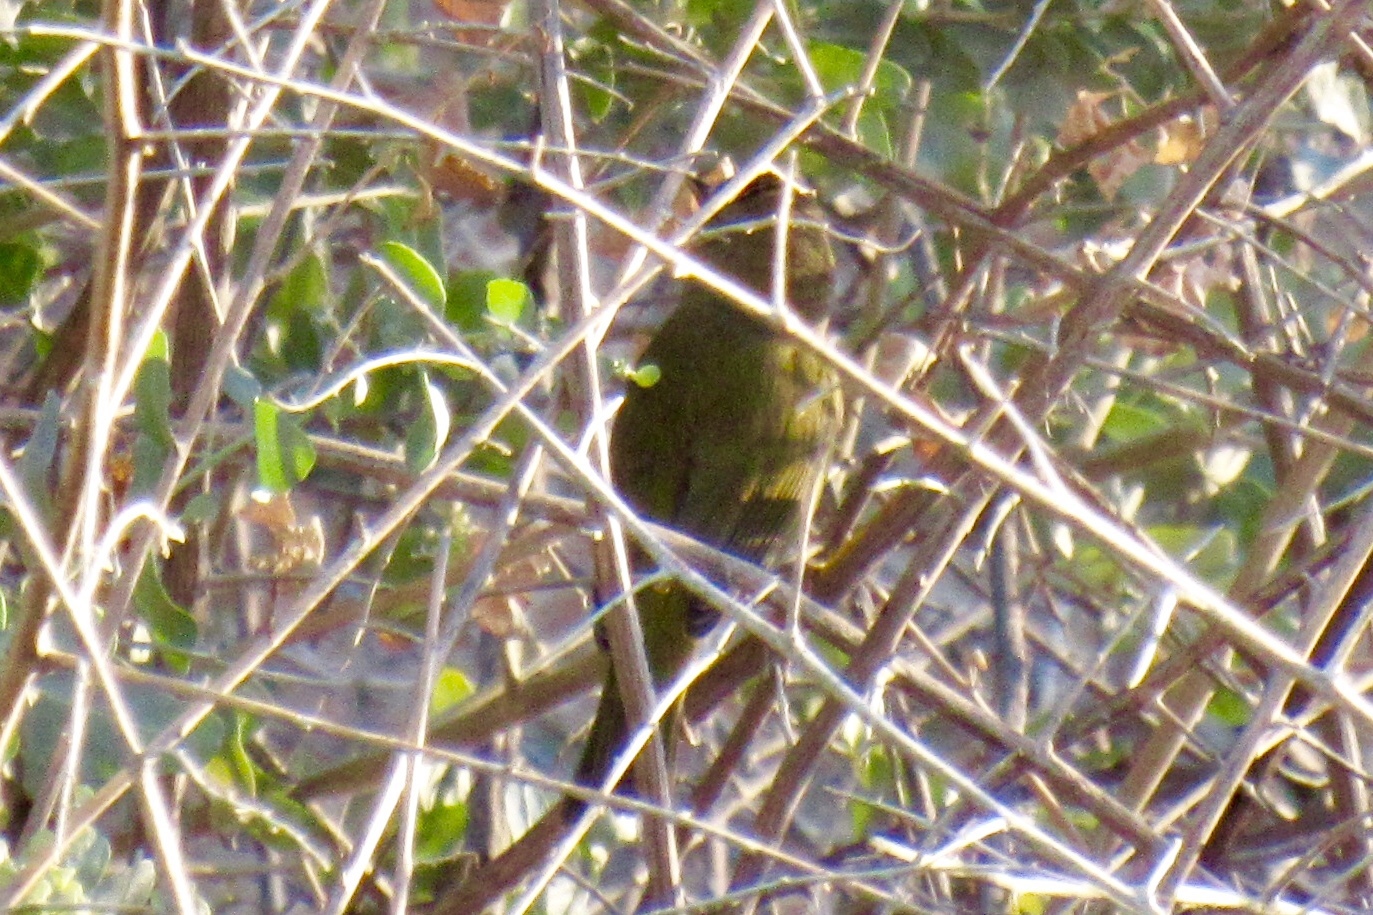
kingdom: Animalia
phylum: Chordata
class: Aves
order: Passeriformes
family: Parulidae
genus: Leiothlypis
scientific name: Leiothlypis celata
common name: Orange-crowned warbler
